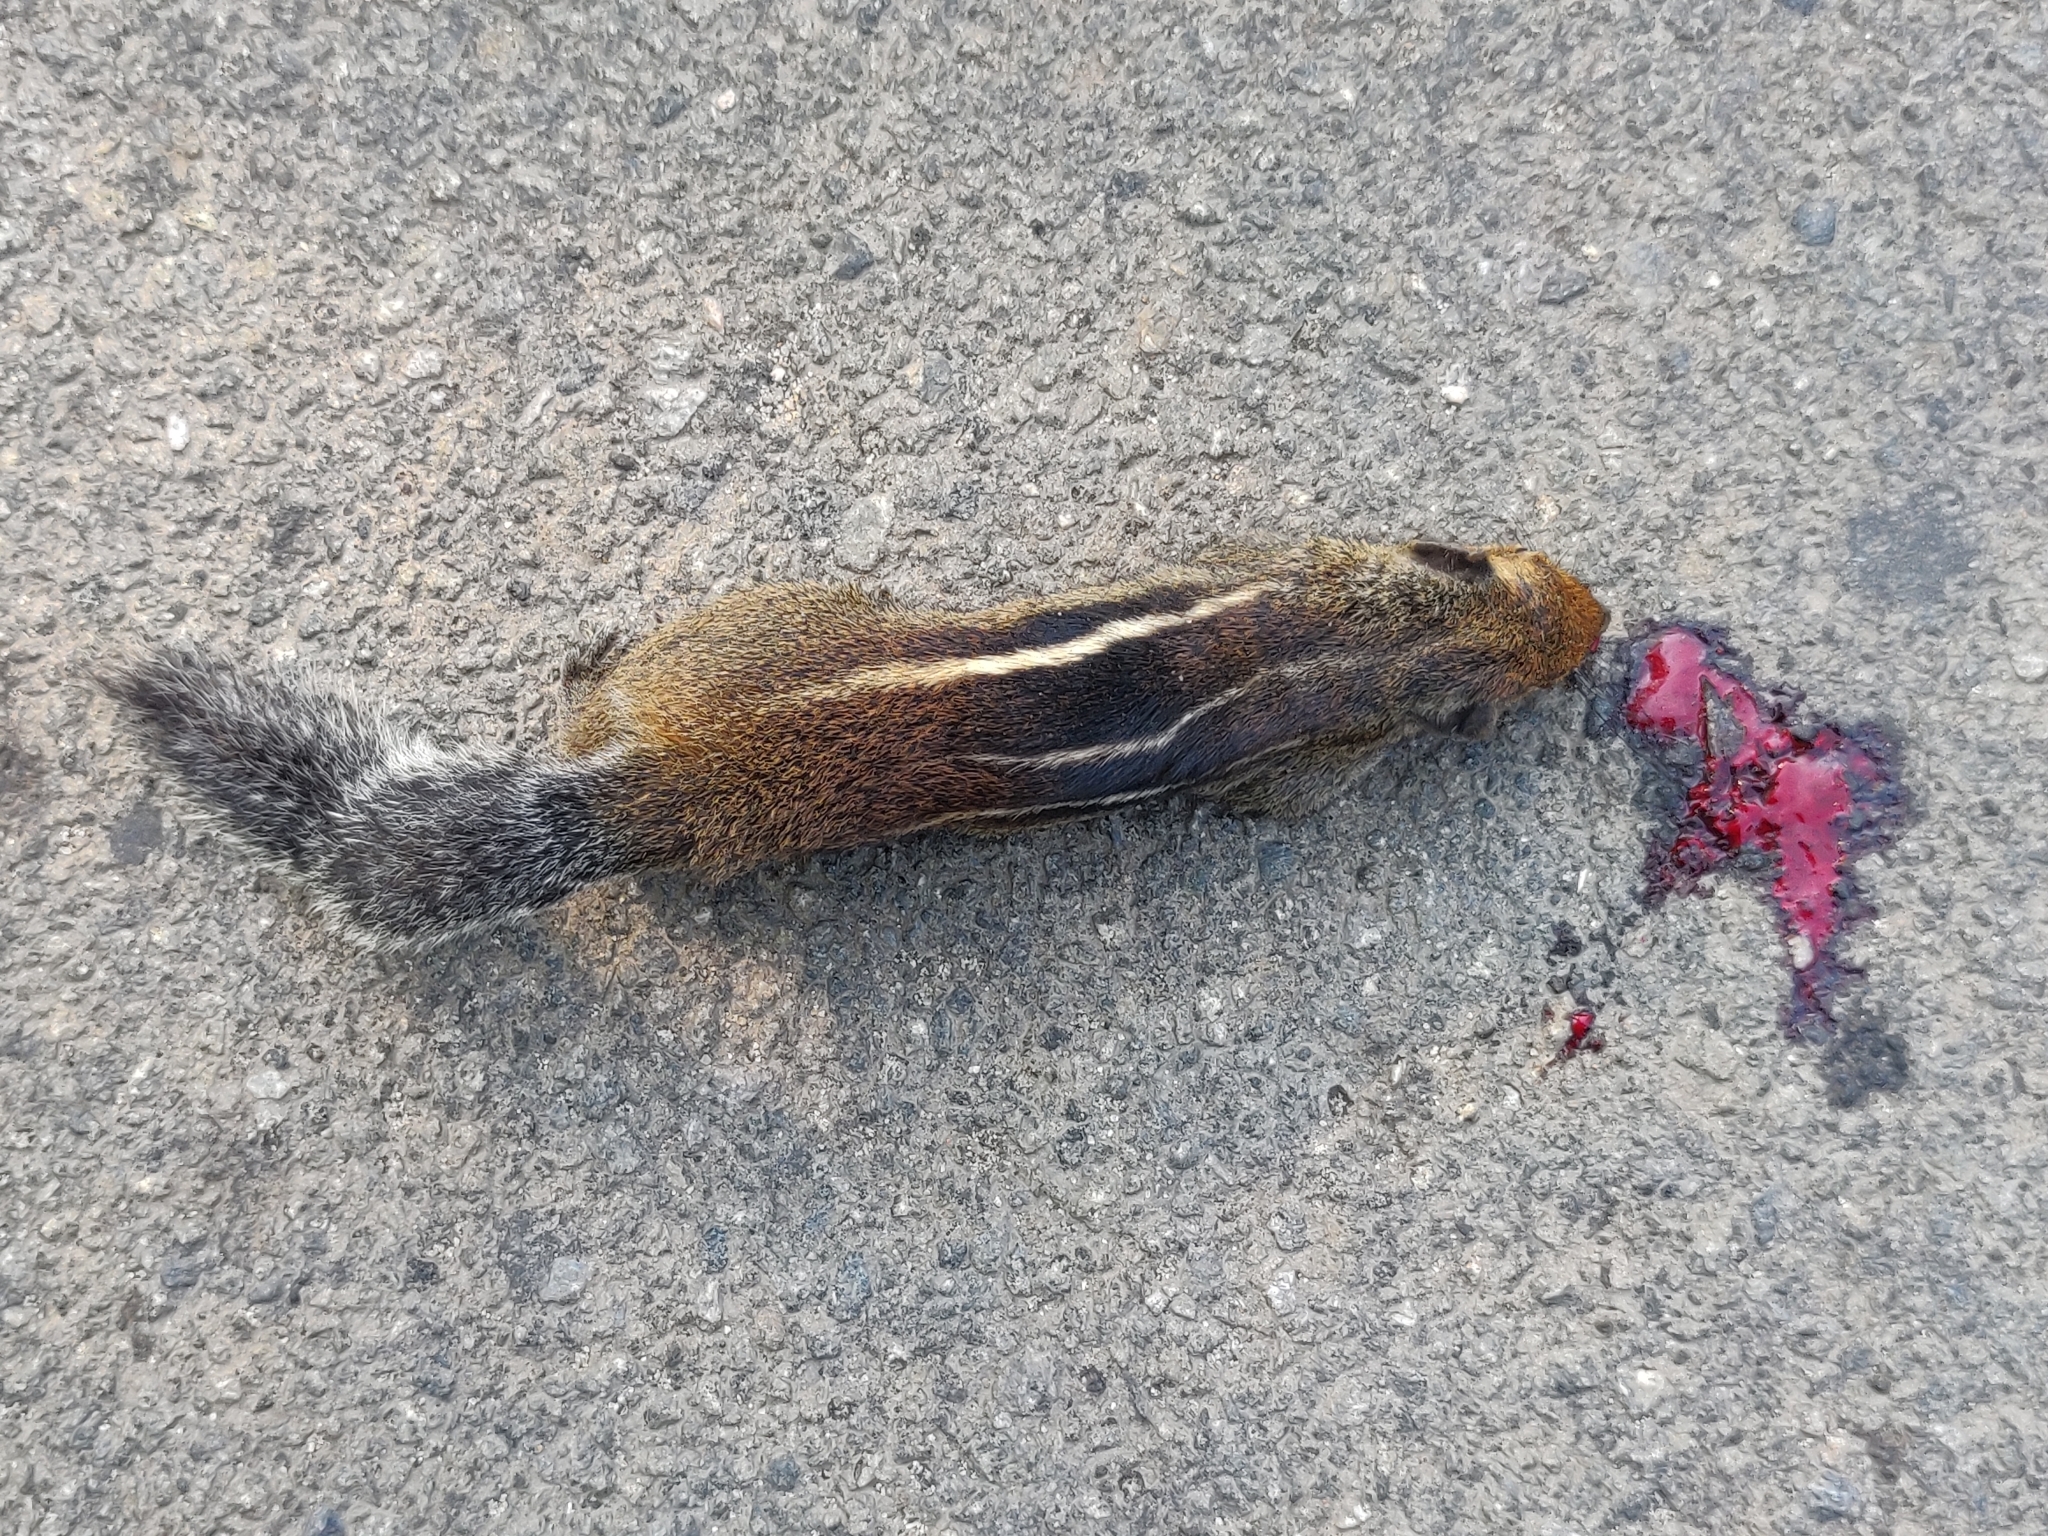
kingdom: Animalia
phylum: Chordata
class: Mammalia
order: Rodentia
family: Sciuridae
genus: Funambulus
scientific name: Funambulus tristriatus
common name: Jungle palm squirrel
